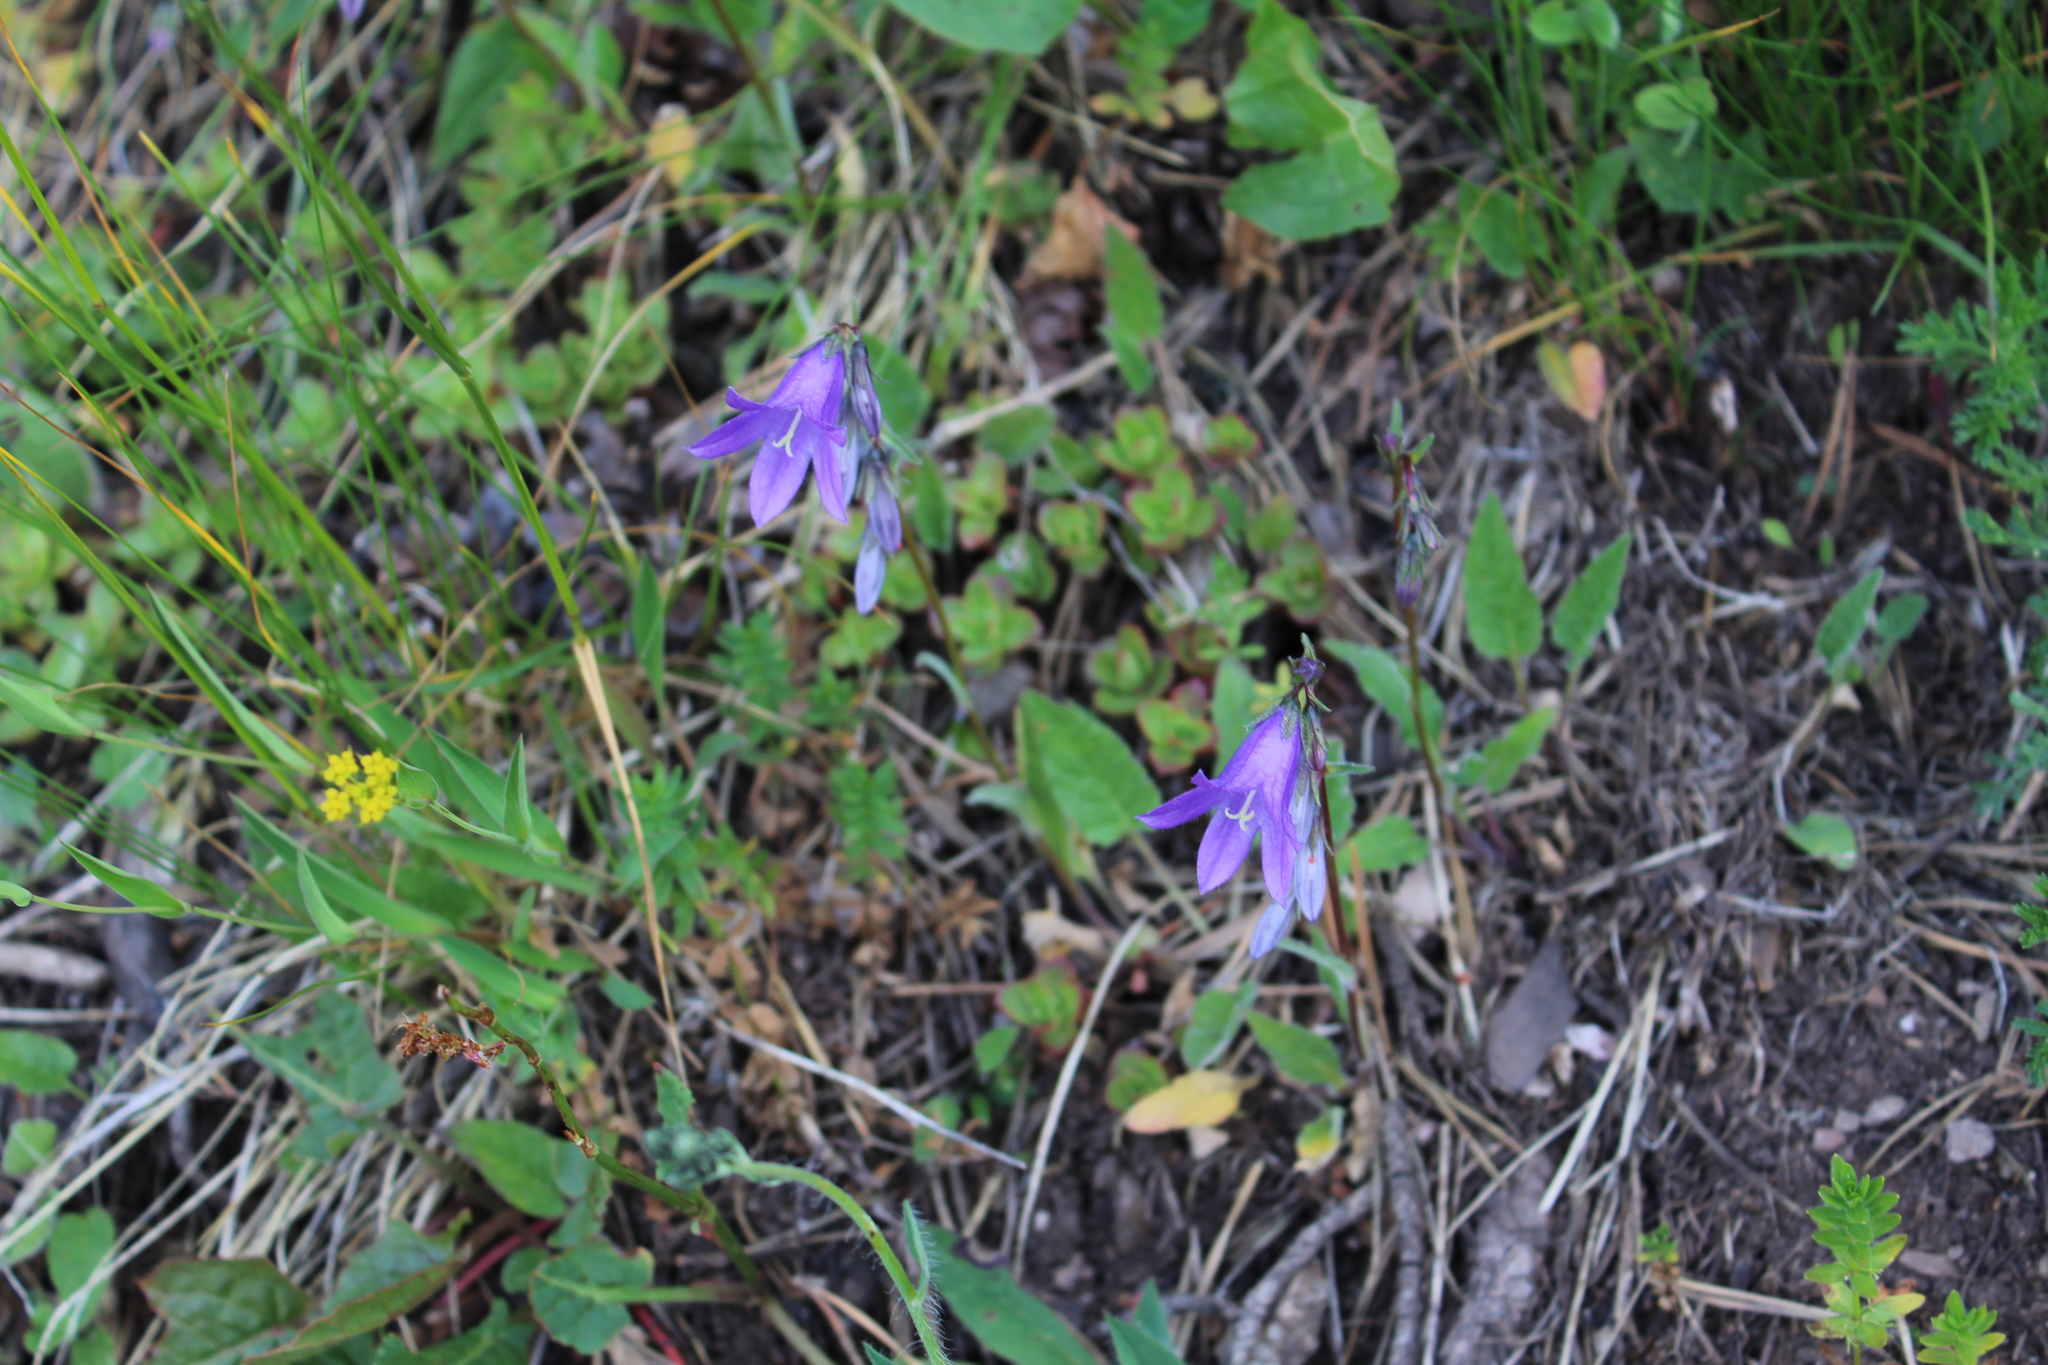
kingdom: Plantae
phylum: Tracheophyta
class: Magnoliopsida
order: Asterales
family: Campanulaceae
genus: Campanula
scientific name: Campanula collina
